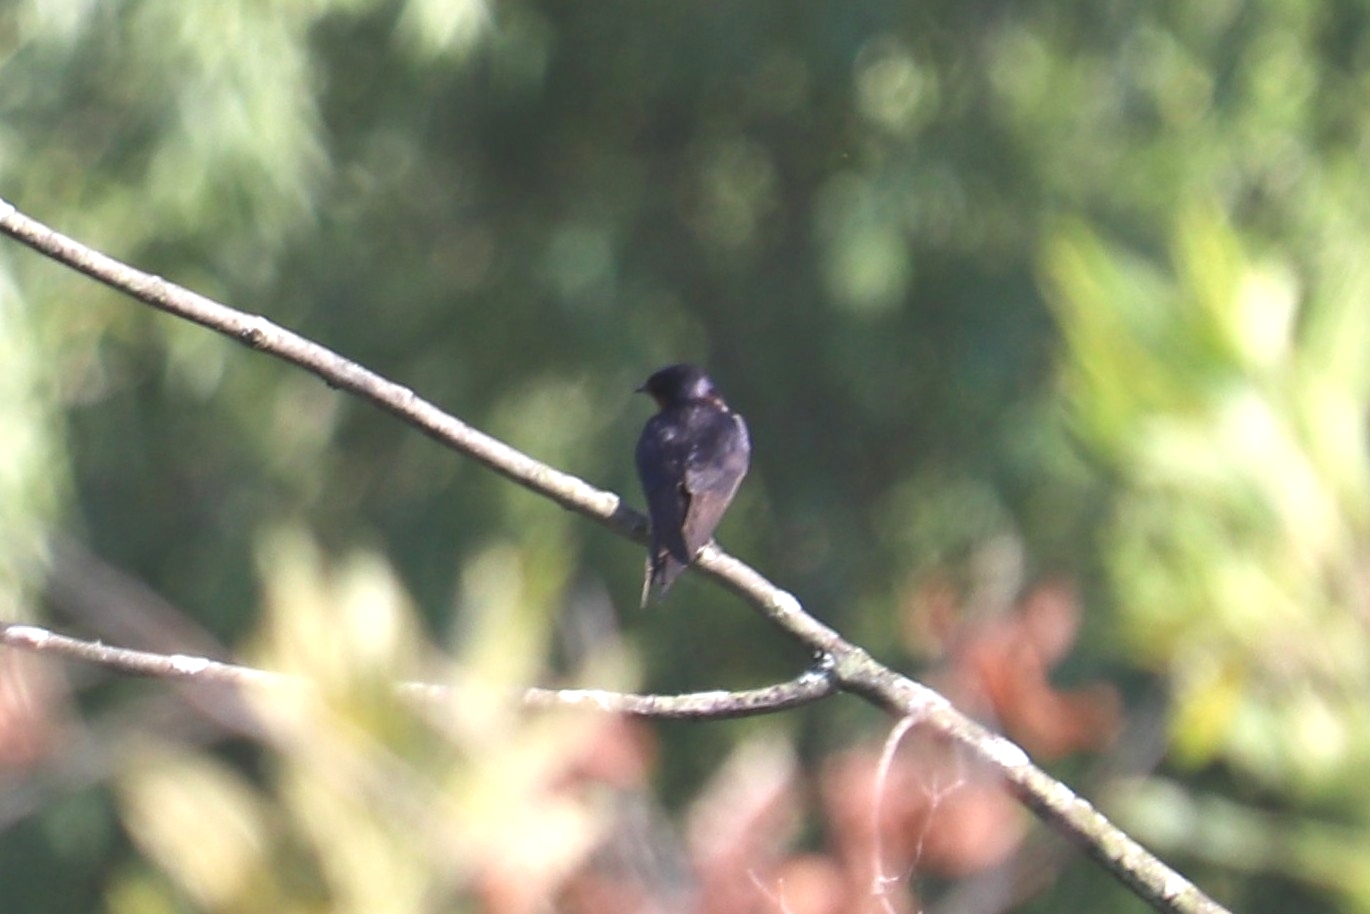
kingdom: Animalia
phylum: Chordata
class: Aves
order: Passeriformes
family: Hirundinidae
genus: Hirundo
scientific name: Hirundo rustica
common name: Barn swallow
